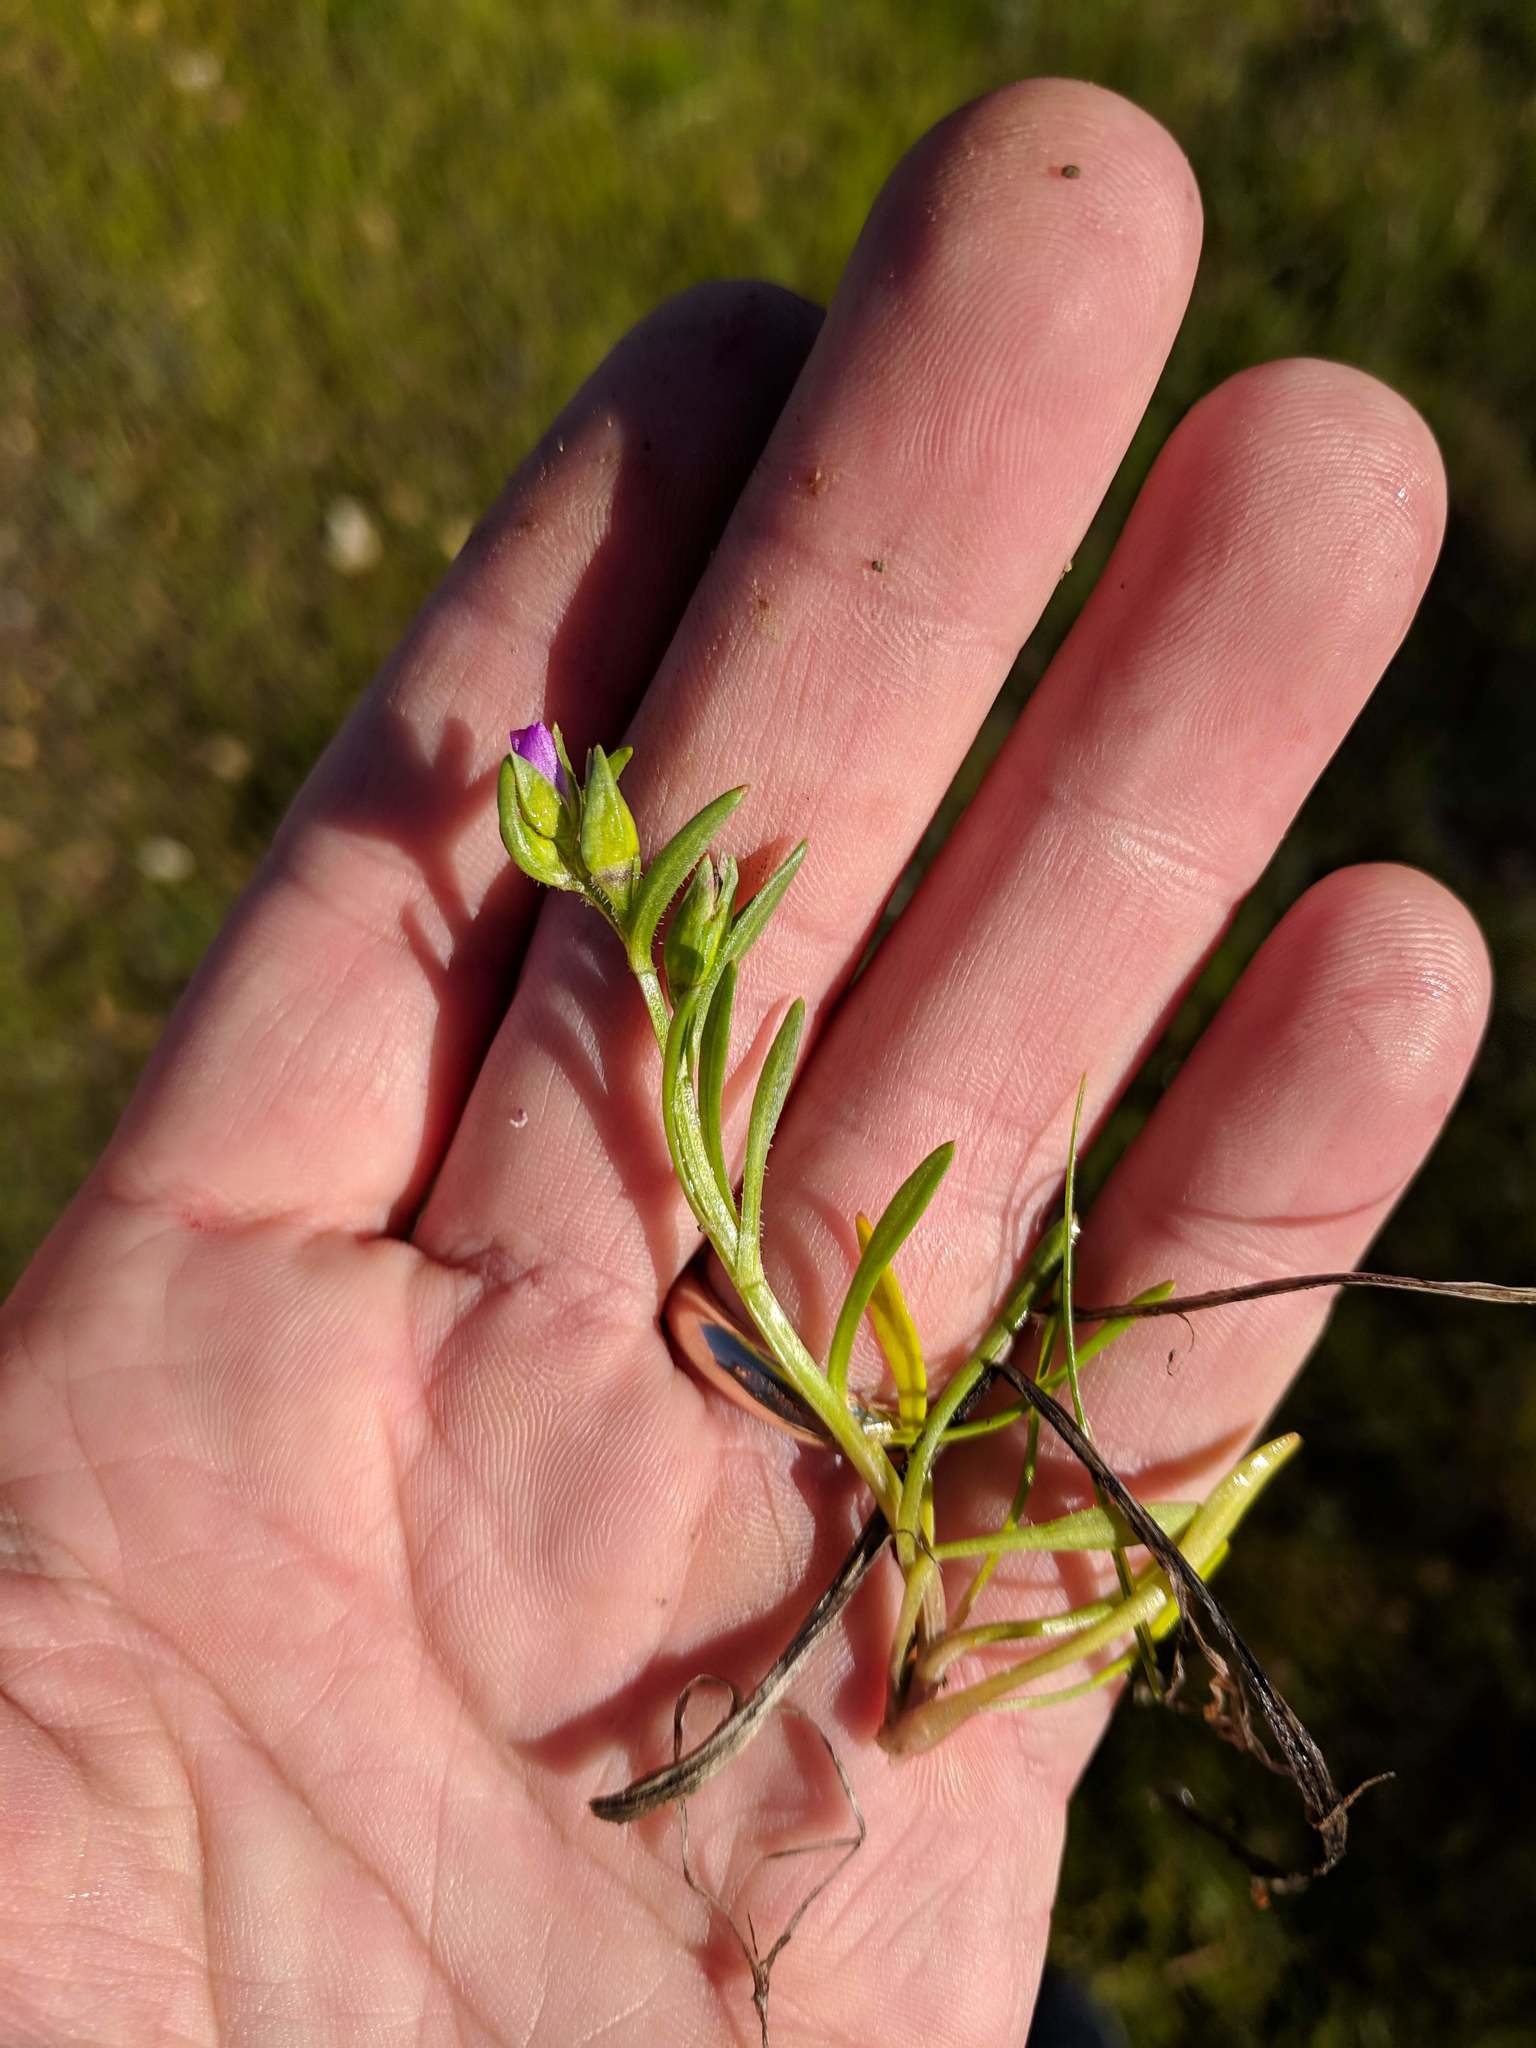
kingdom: Plantae
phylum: Tracheophyta
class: Magnoliopsida
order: Caryophyllales
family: Montiaceae
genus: Calandrinia
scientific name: Calandrinia menziesii
